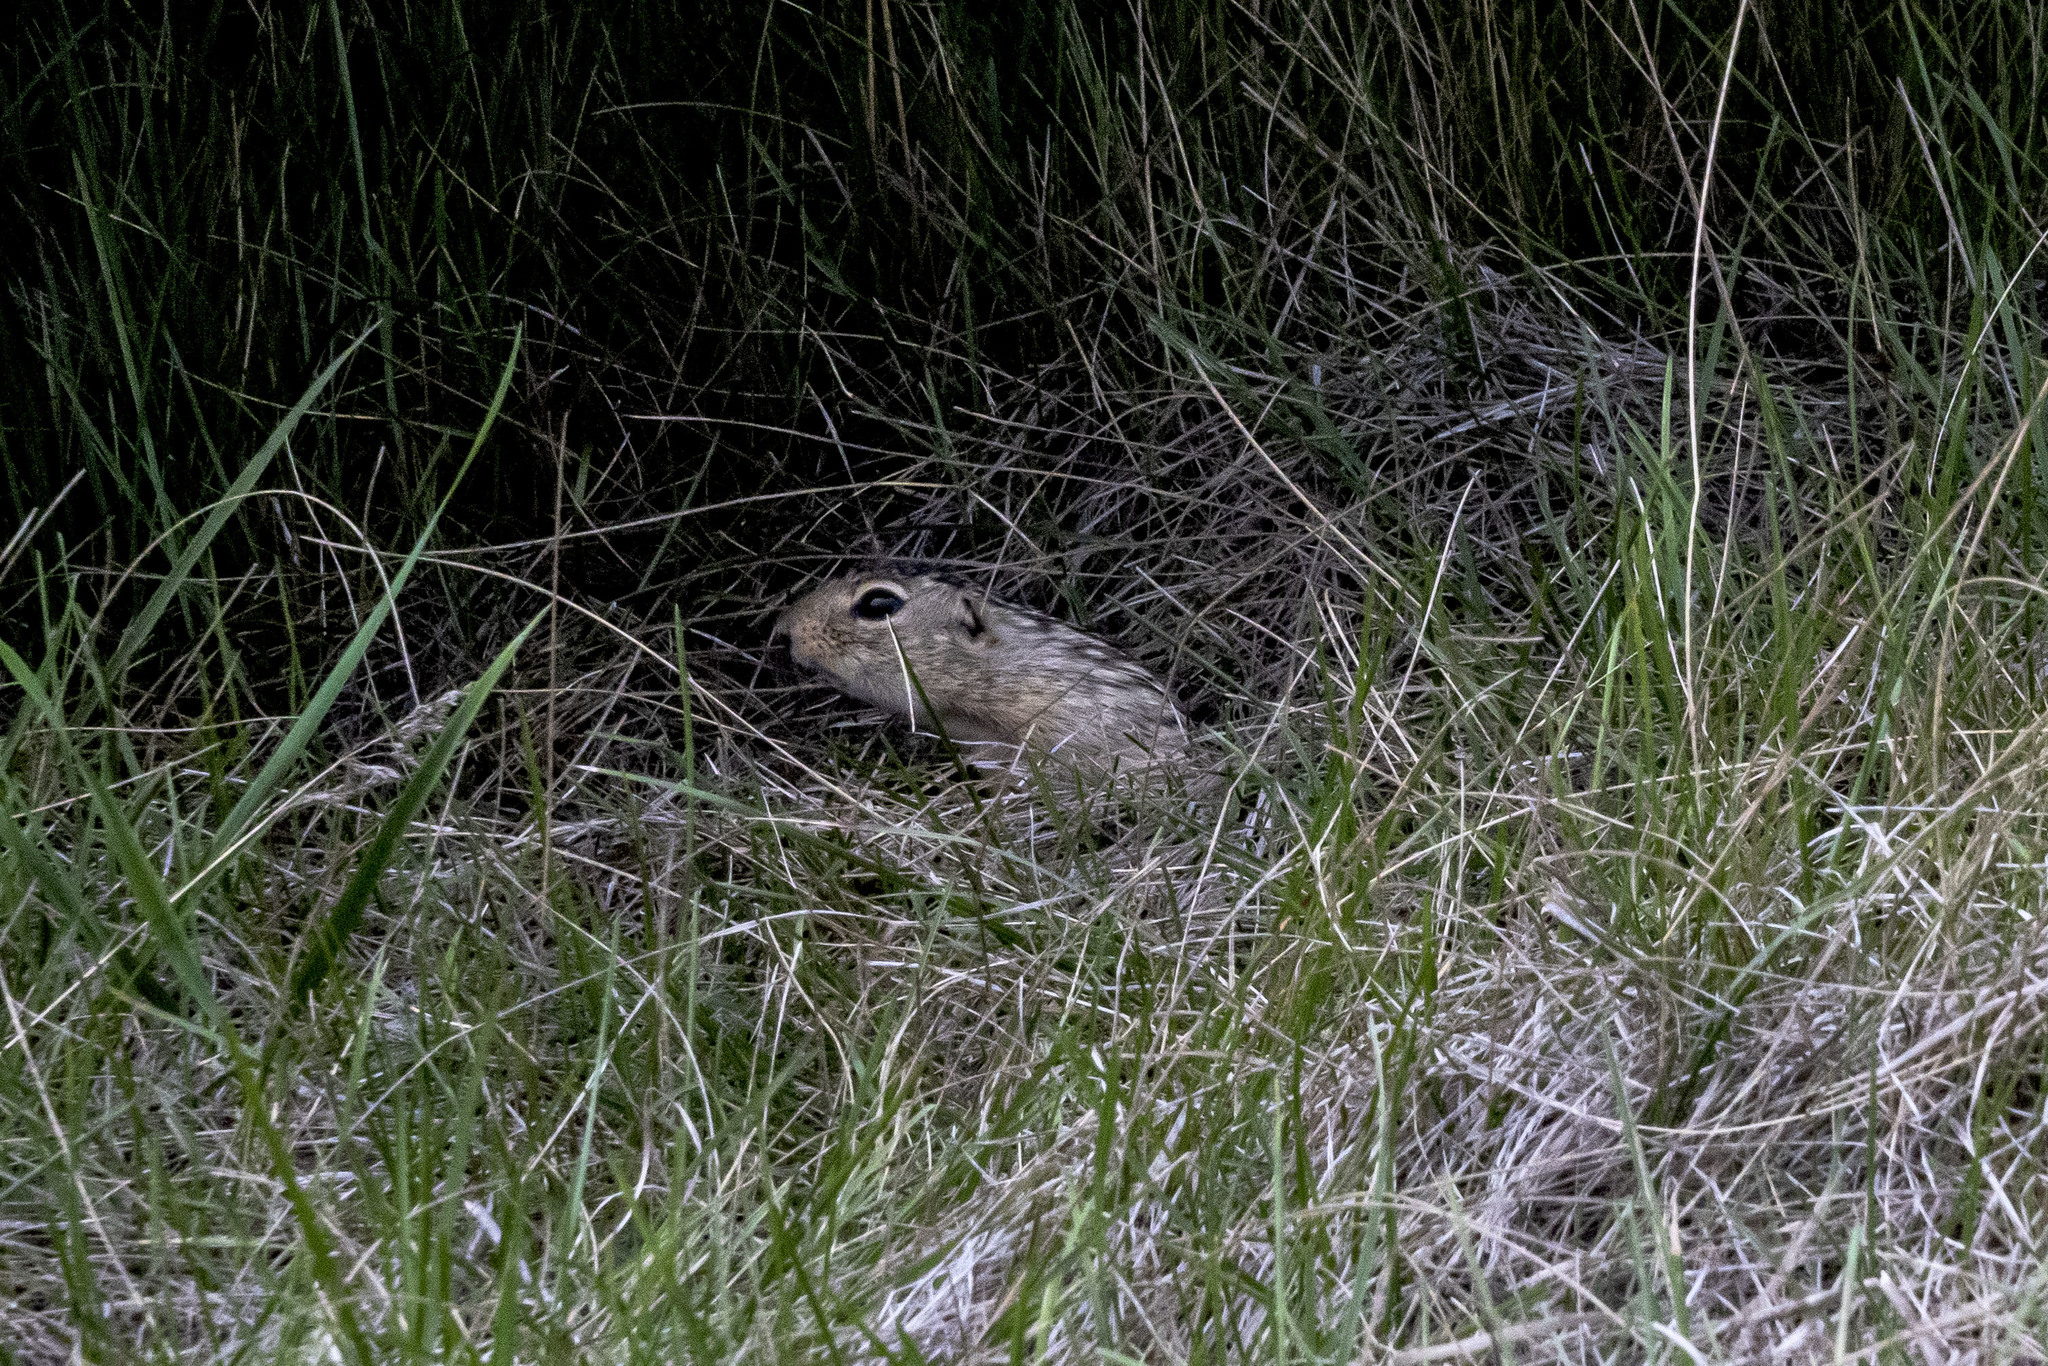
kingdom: Animalia
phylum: Chordata
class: Mammalia
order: Rodentia
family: Sciuridae
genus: Ictidomys
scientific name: Ictidomys tridecemlineatus
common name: Thirteen-lined ground squirrel
